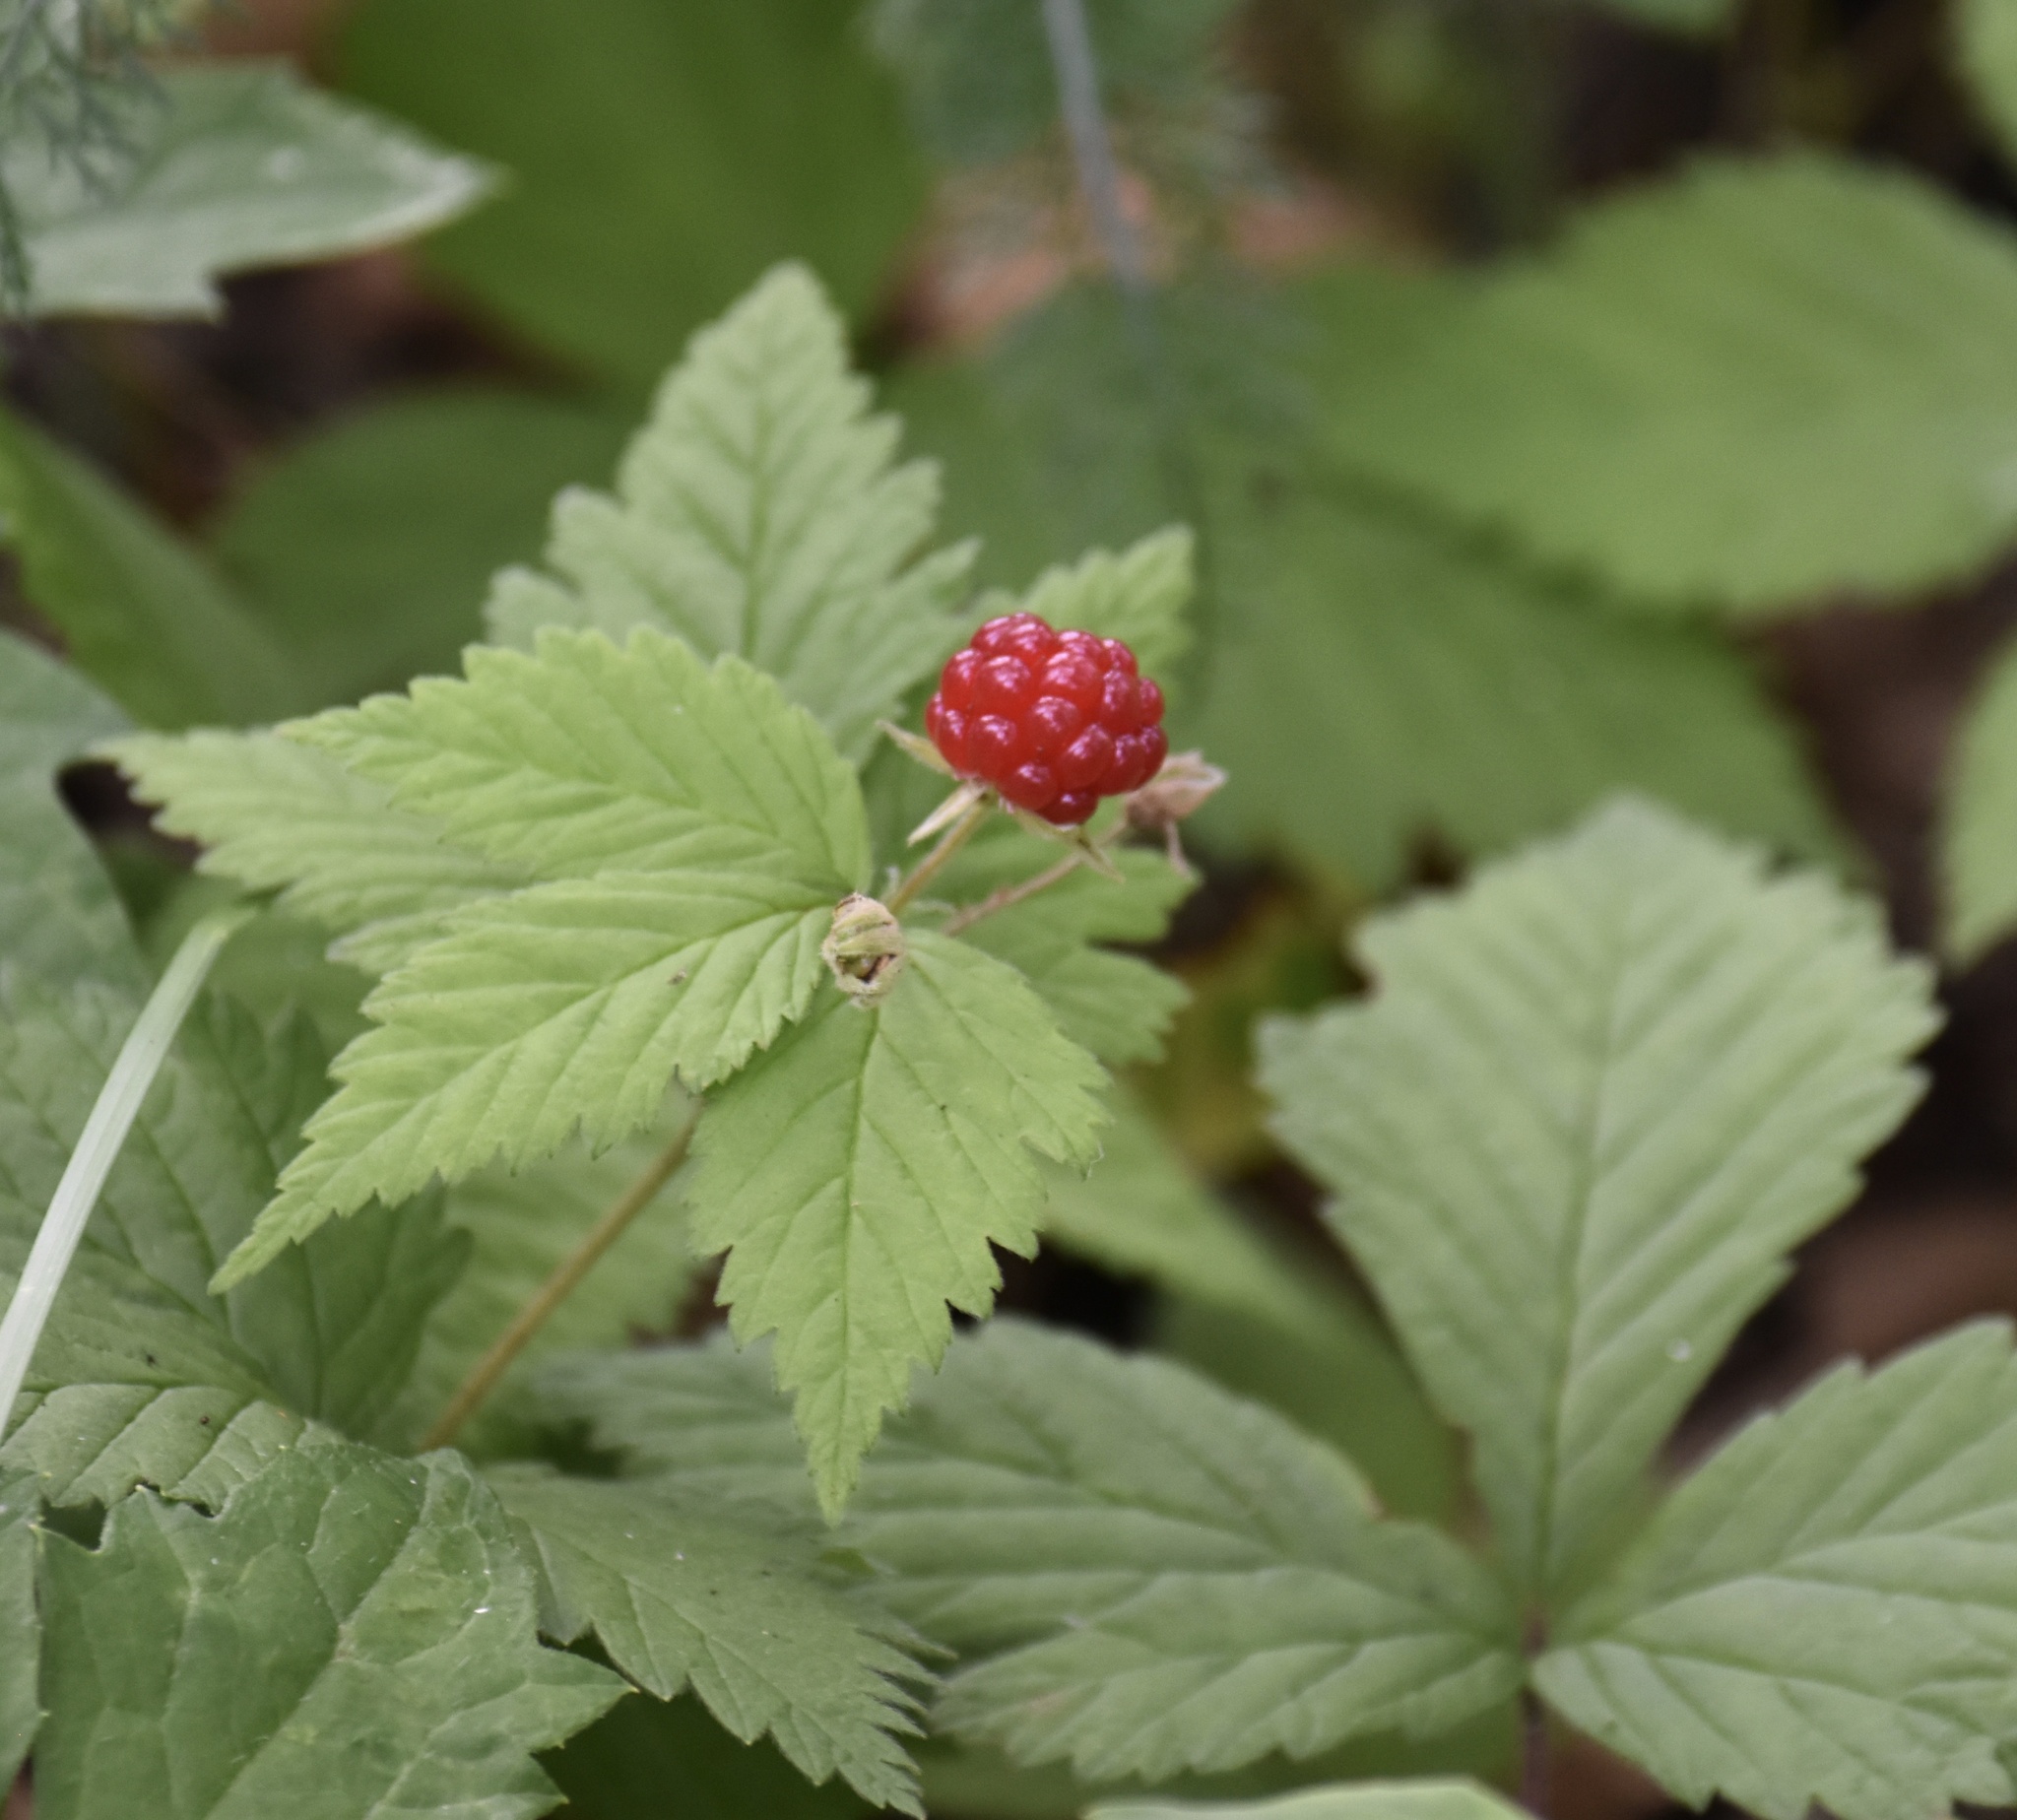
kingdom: Plantae
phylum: Tracheophyta
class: Magnoliopsida
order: Rosales
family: Rosaceae
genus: Rubus
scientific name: Rubus pubescens
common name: Dwarf raspberry
